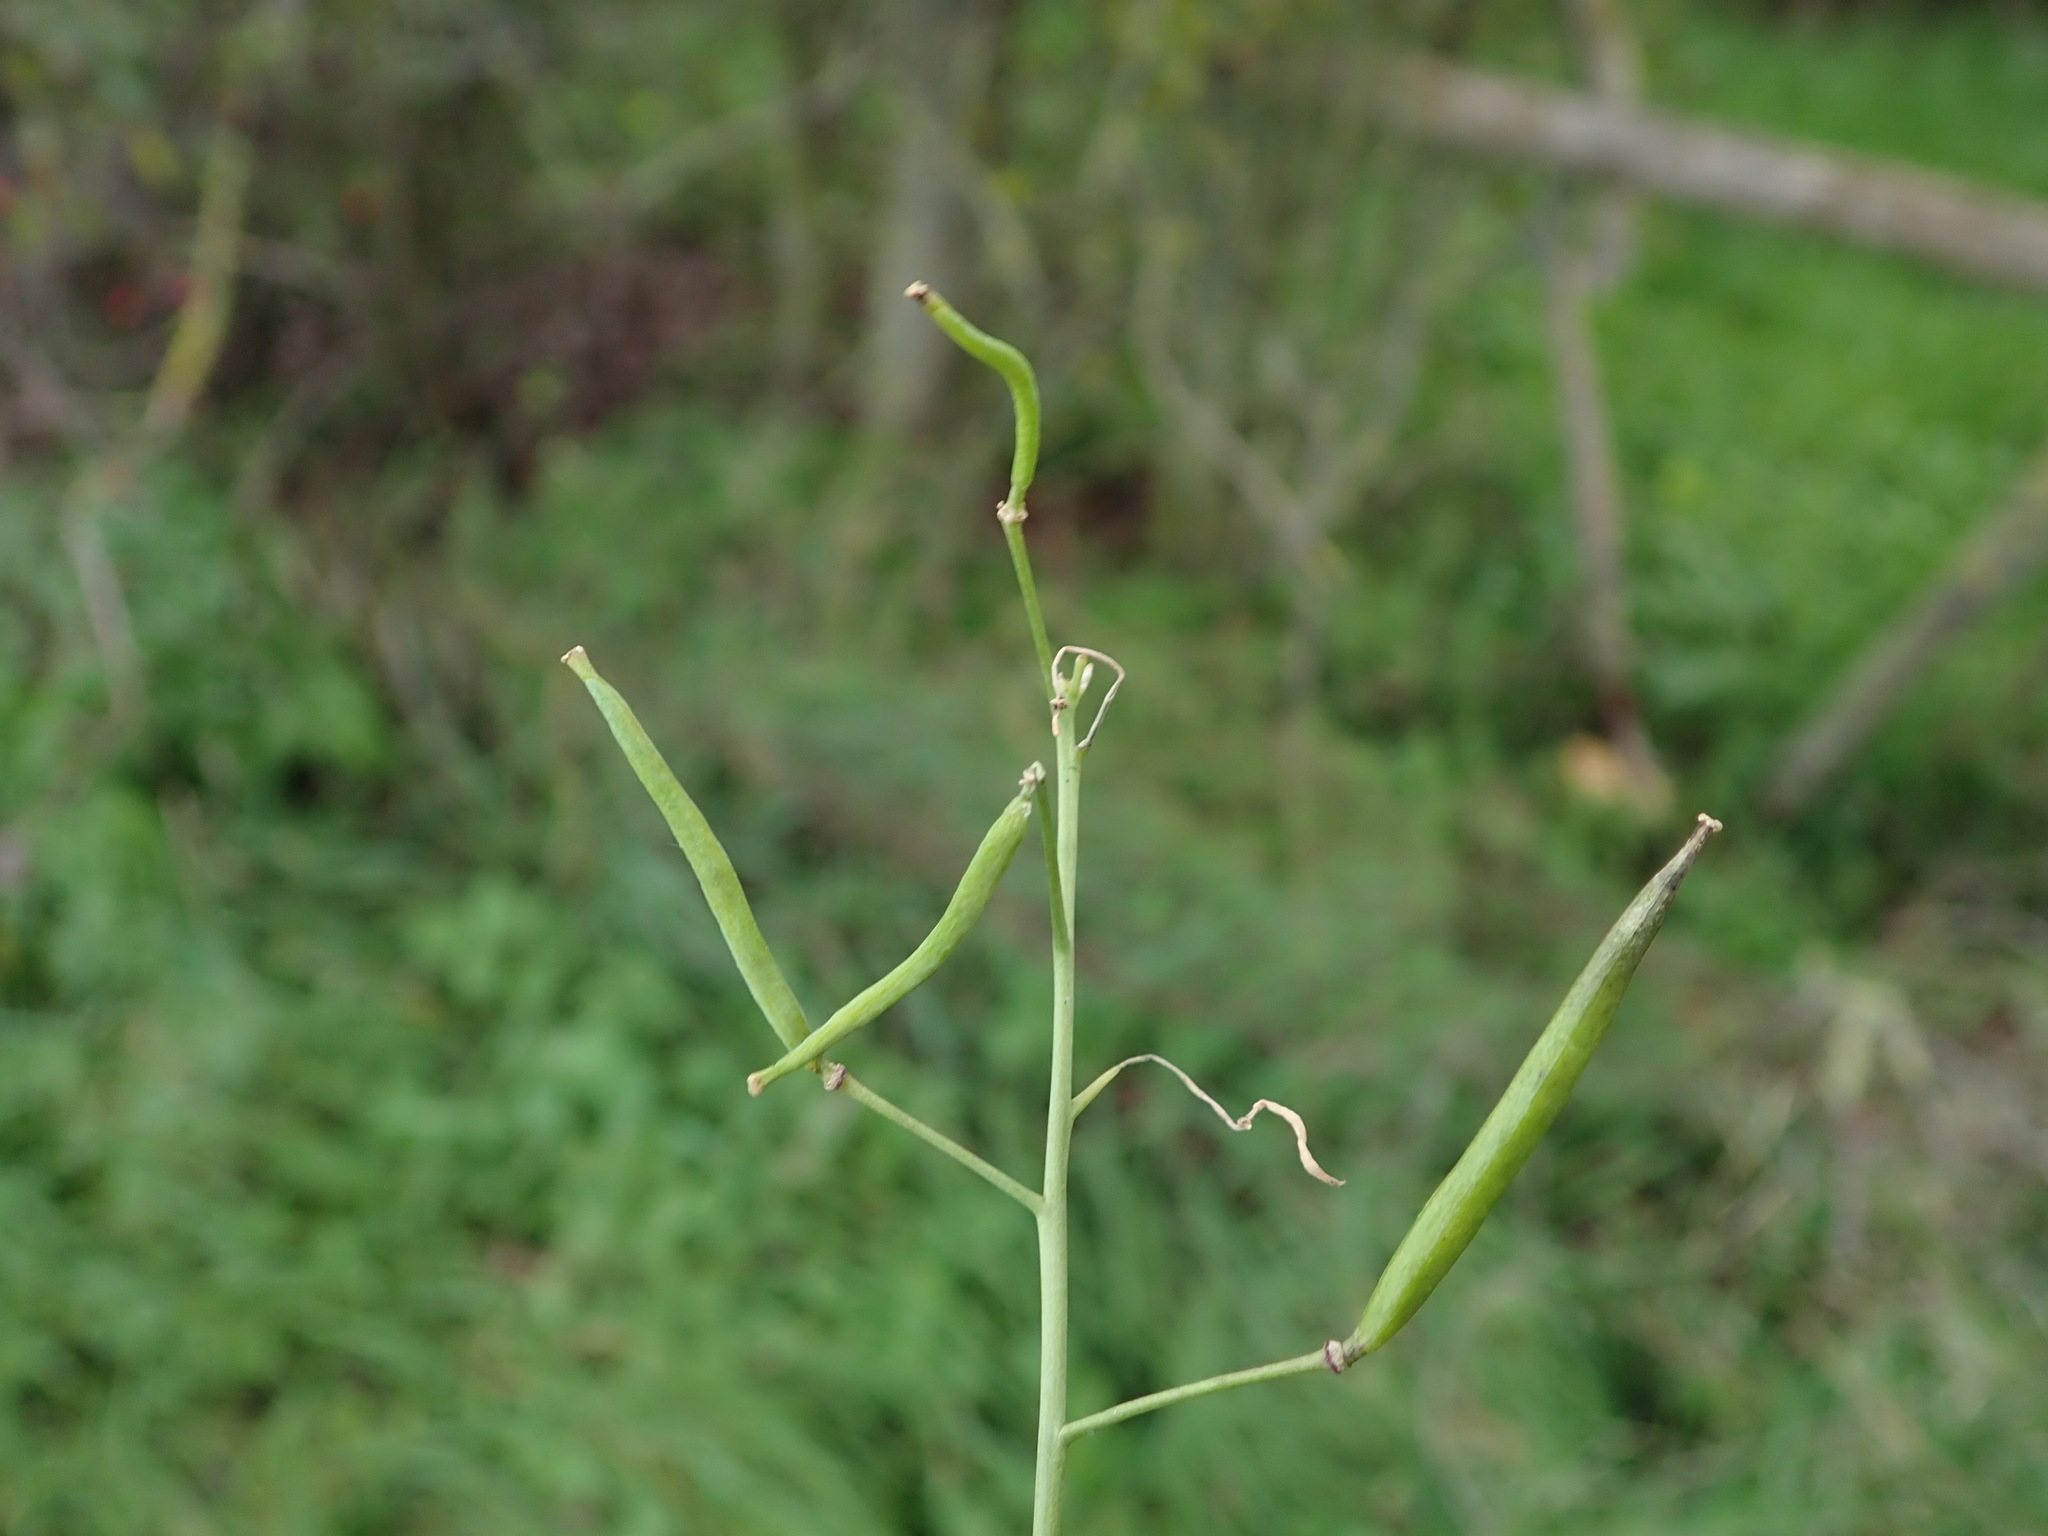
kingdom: Plantae
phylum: Tracheophyta
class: Magnoliopsida
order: Brassicales
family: Brassicaceae
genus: Diplotaxis
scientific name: Diplotaxis tenuifolia
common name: Perennial wall-rocket
